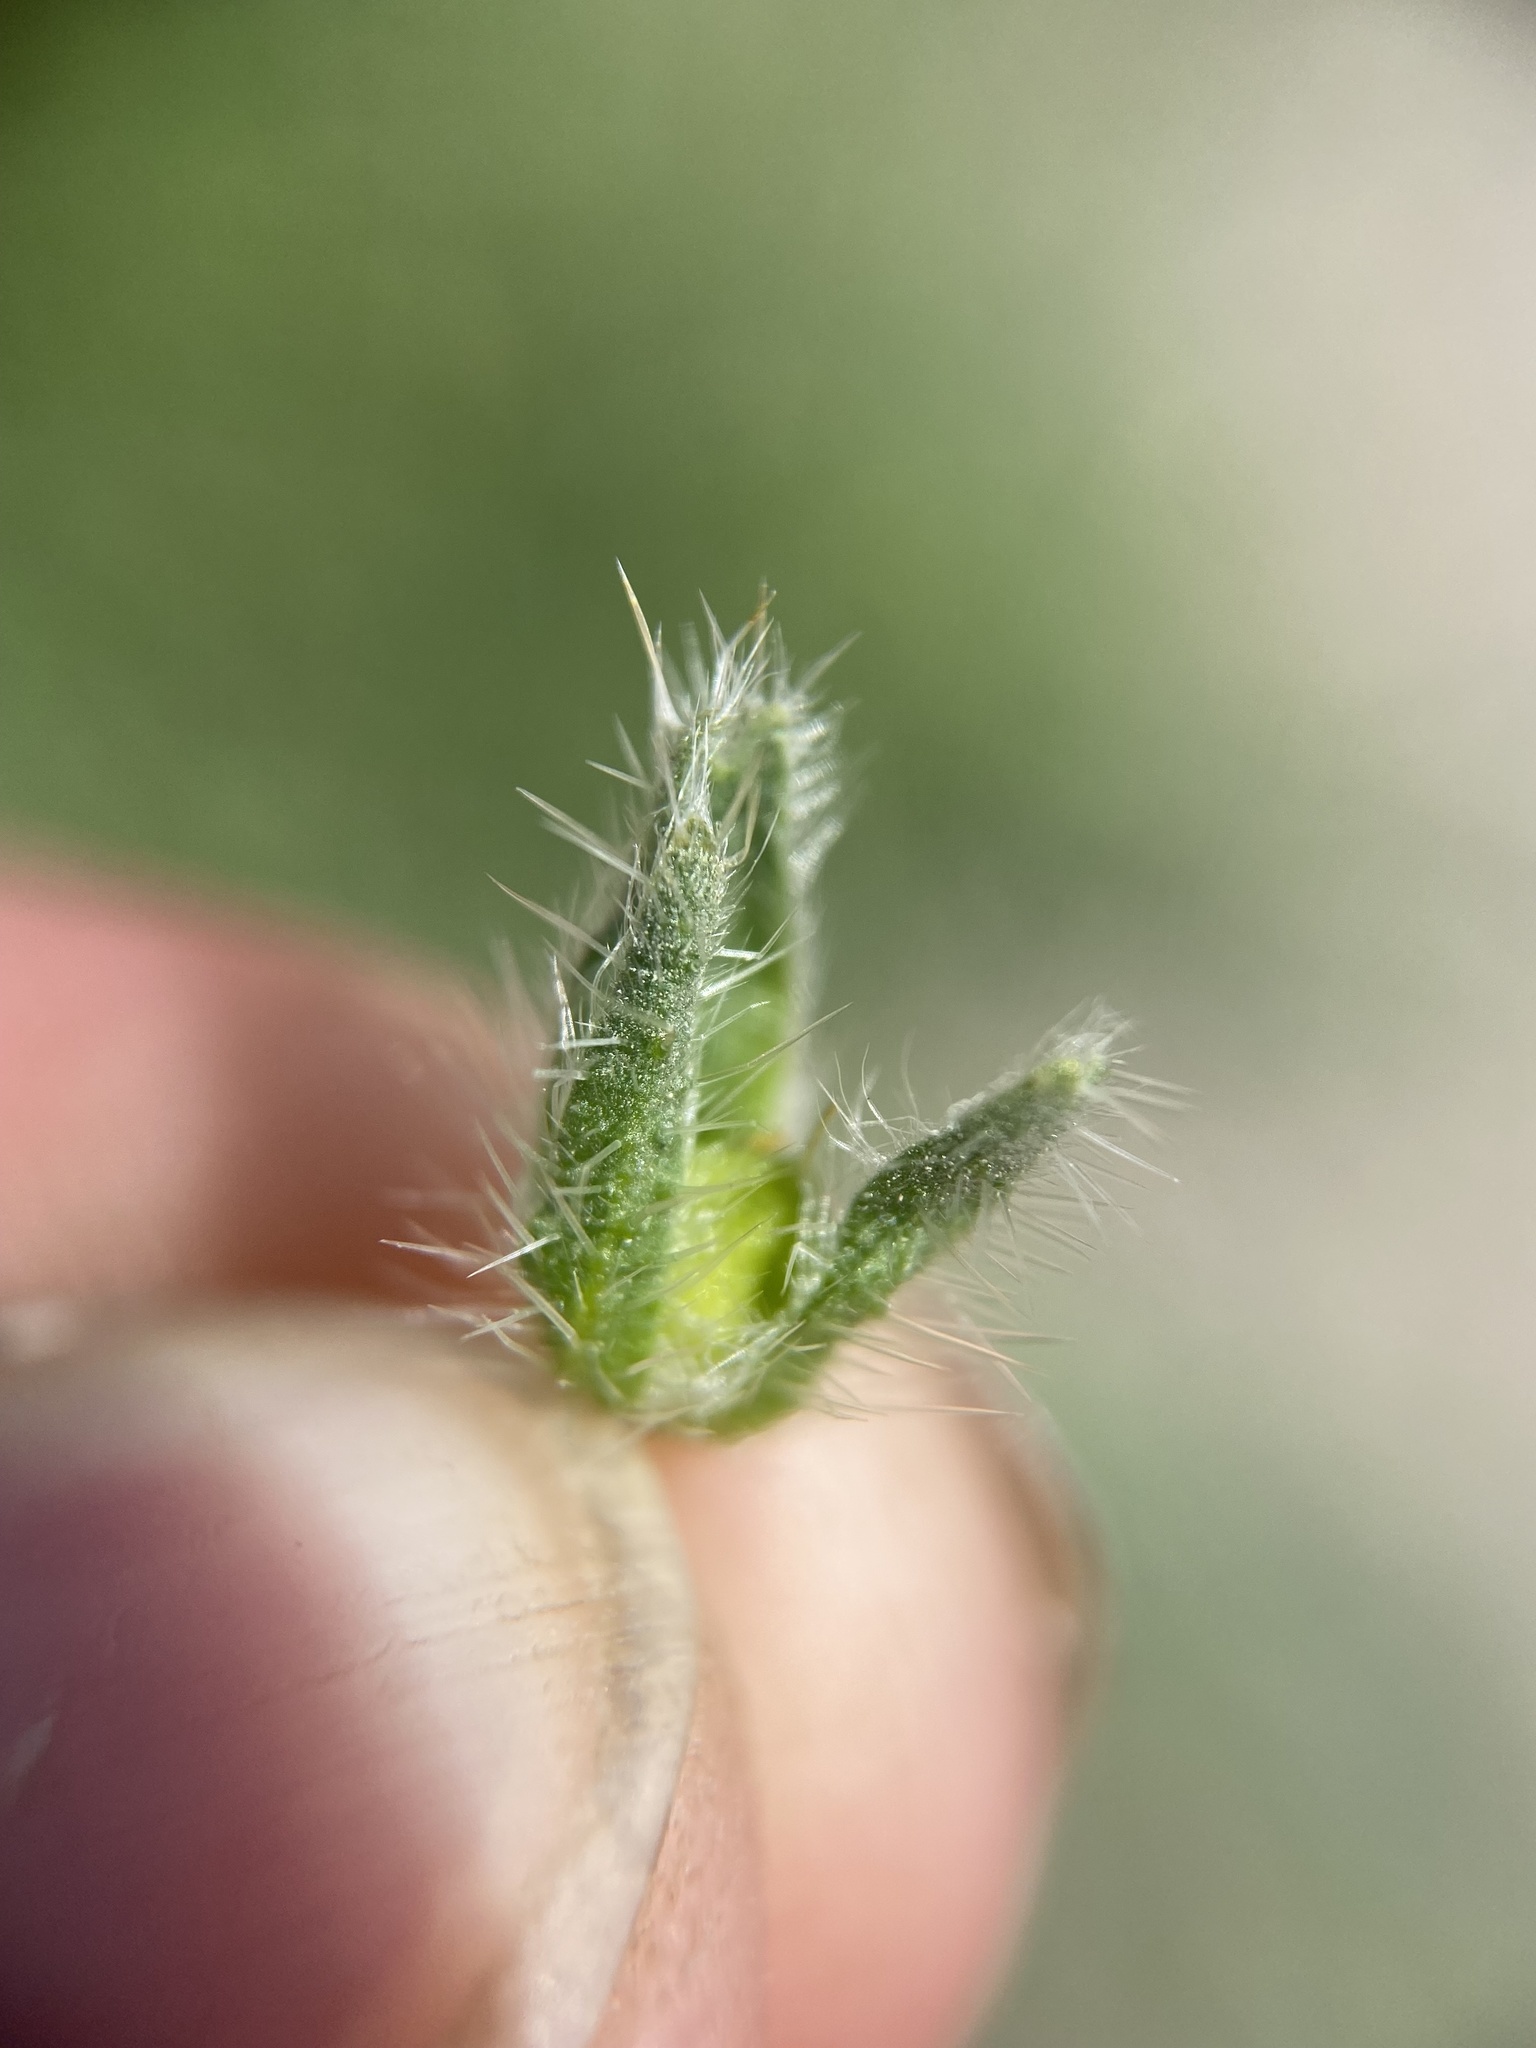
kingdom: Plantae
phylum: Tracheophyta
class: Magnoliopsida
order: Boraginales
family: Boraginaceae
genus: Amsinckia
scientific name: Amsinckia tessellata
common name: Tessellate fiddleneck
